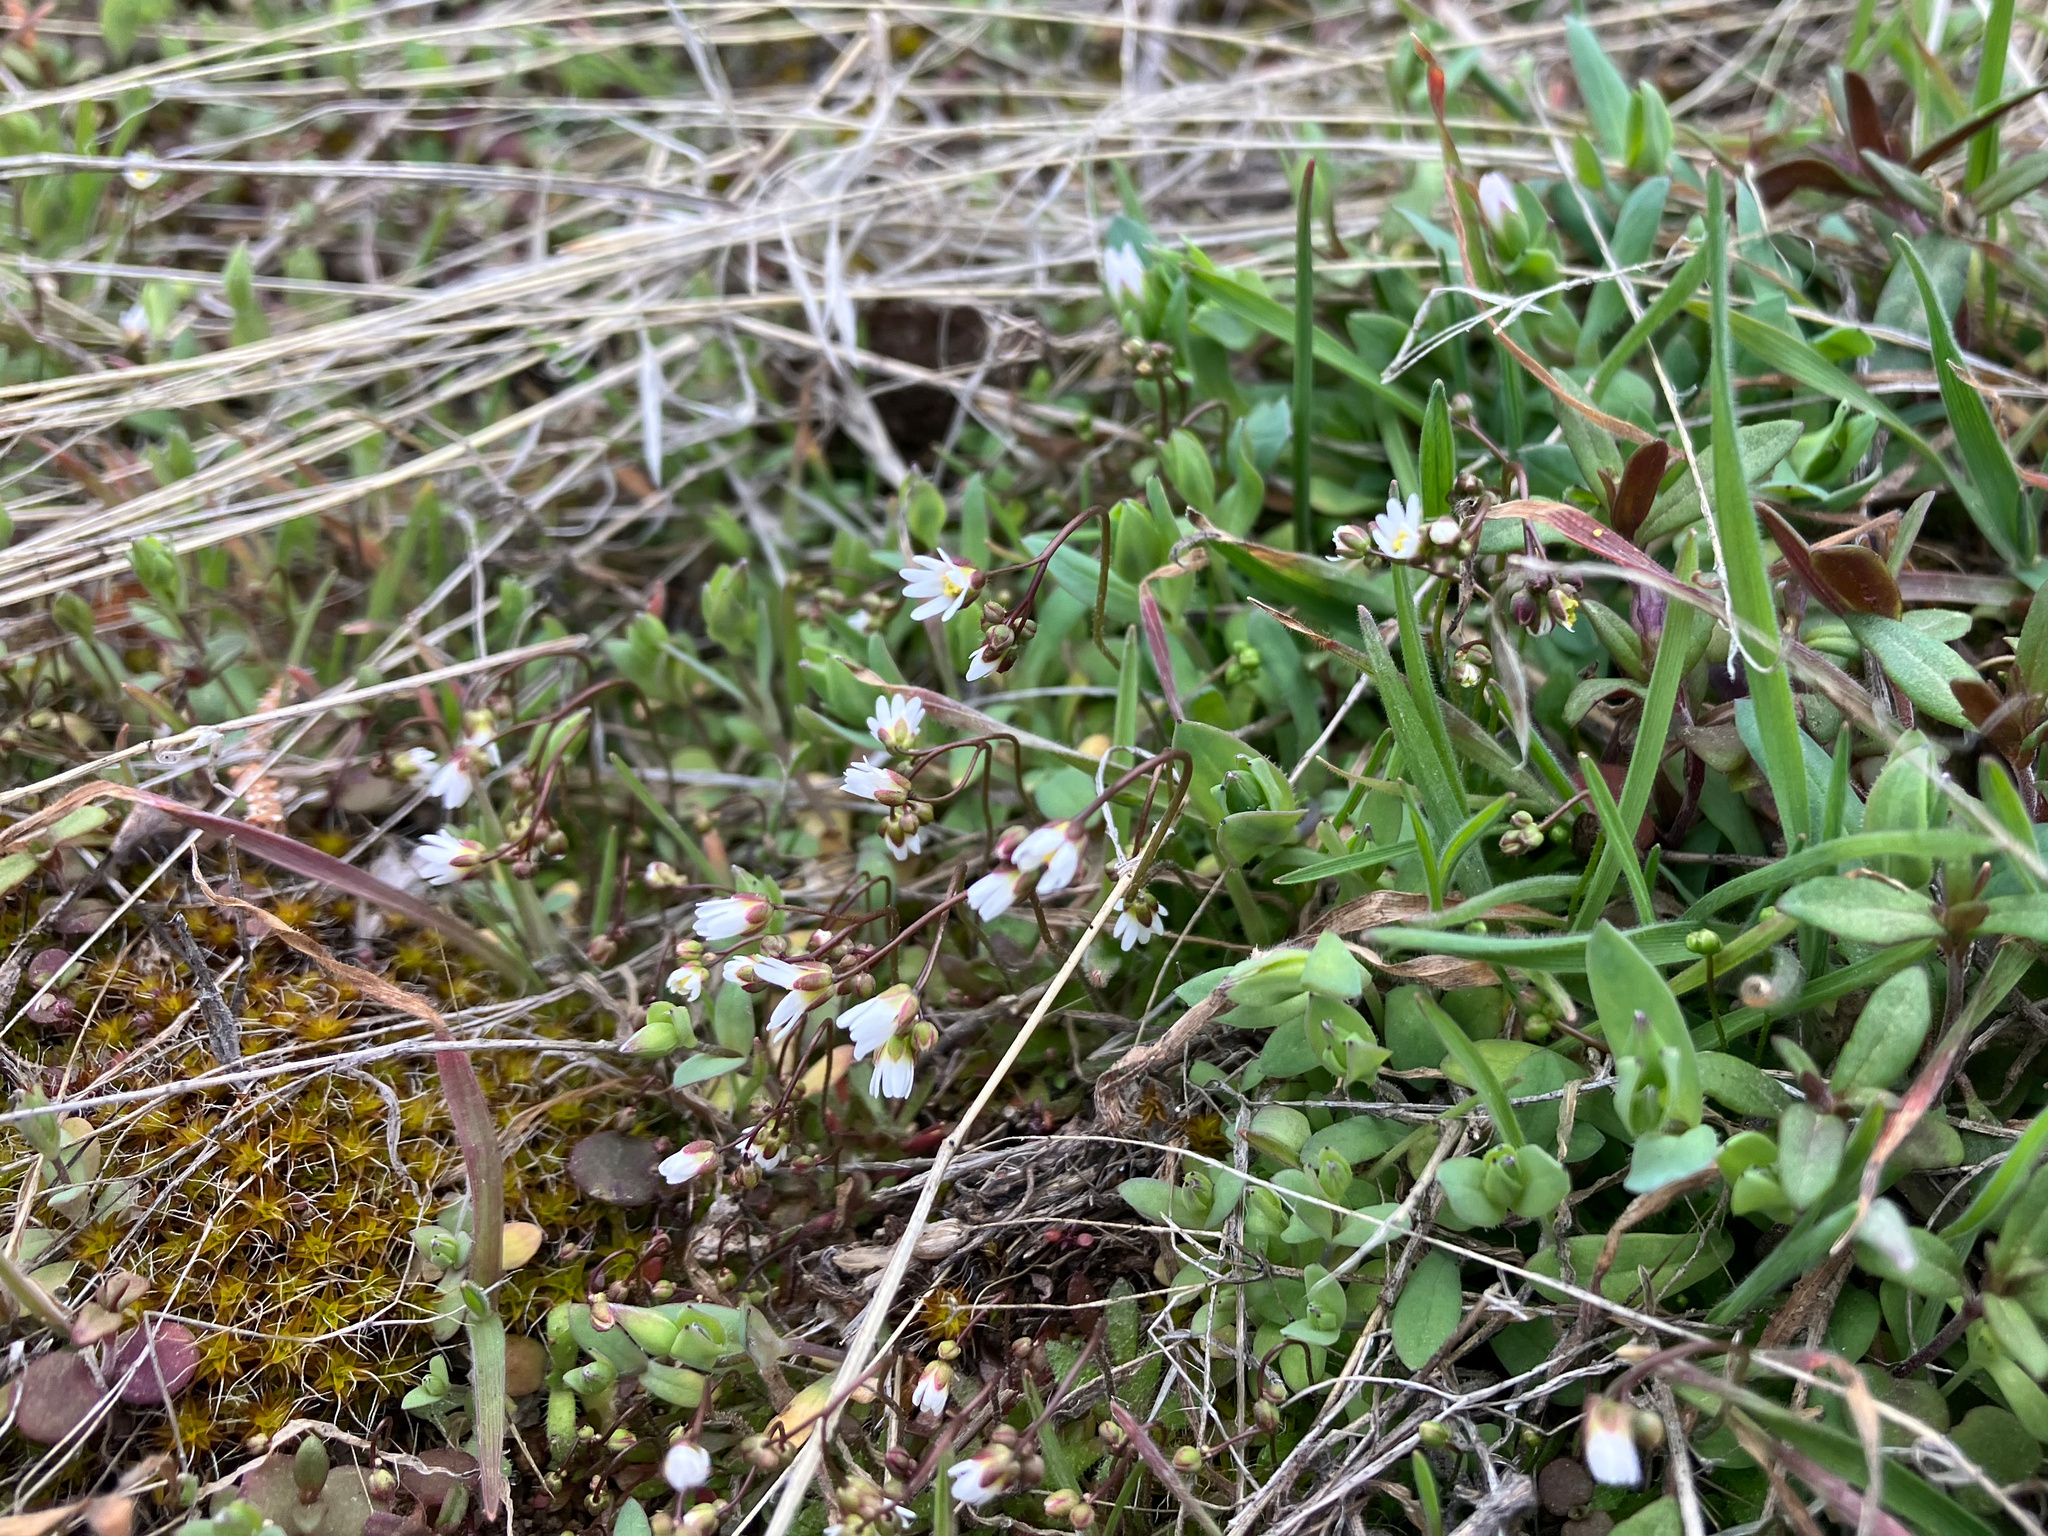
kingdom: Plantae
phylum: Tracheophyta
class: Magnoliopsida
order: Brassicales
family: Brassicaceae
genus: Draba
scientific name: Draba verna
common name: Spring draba
